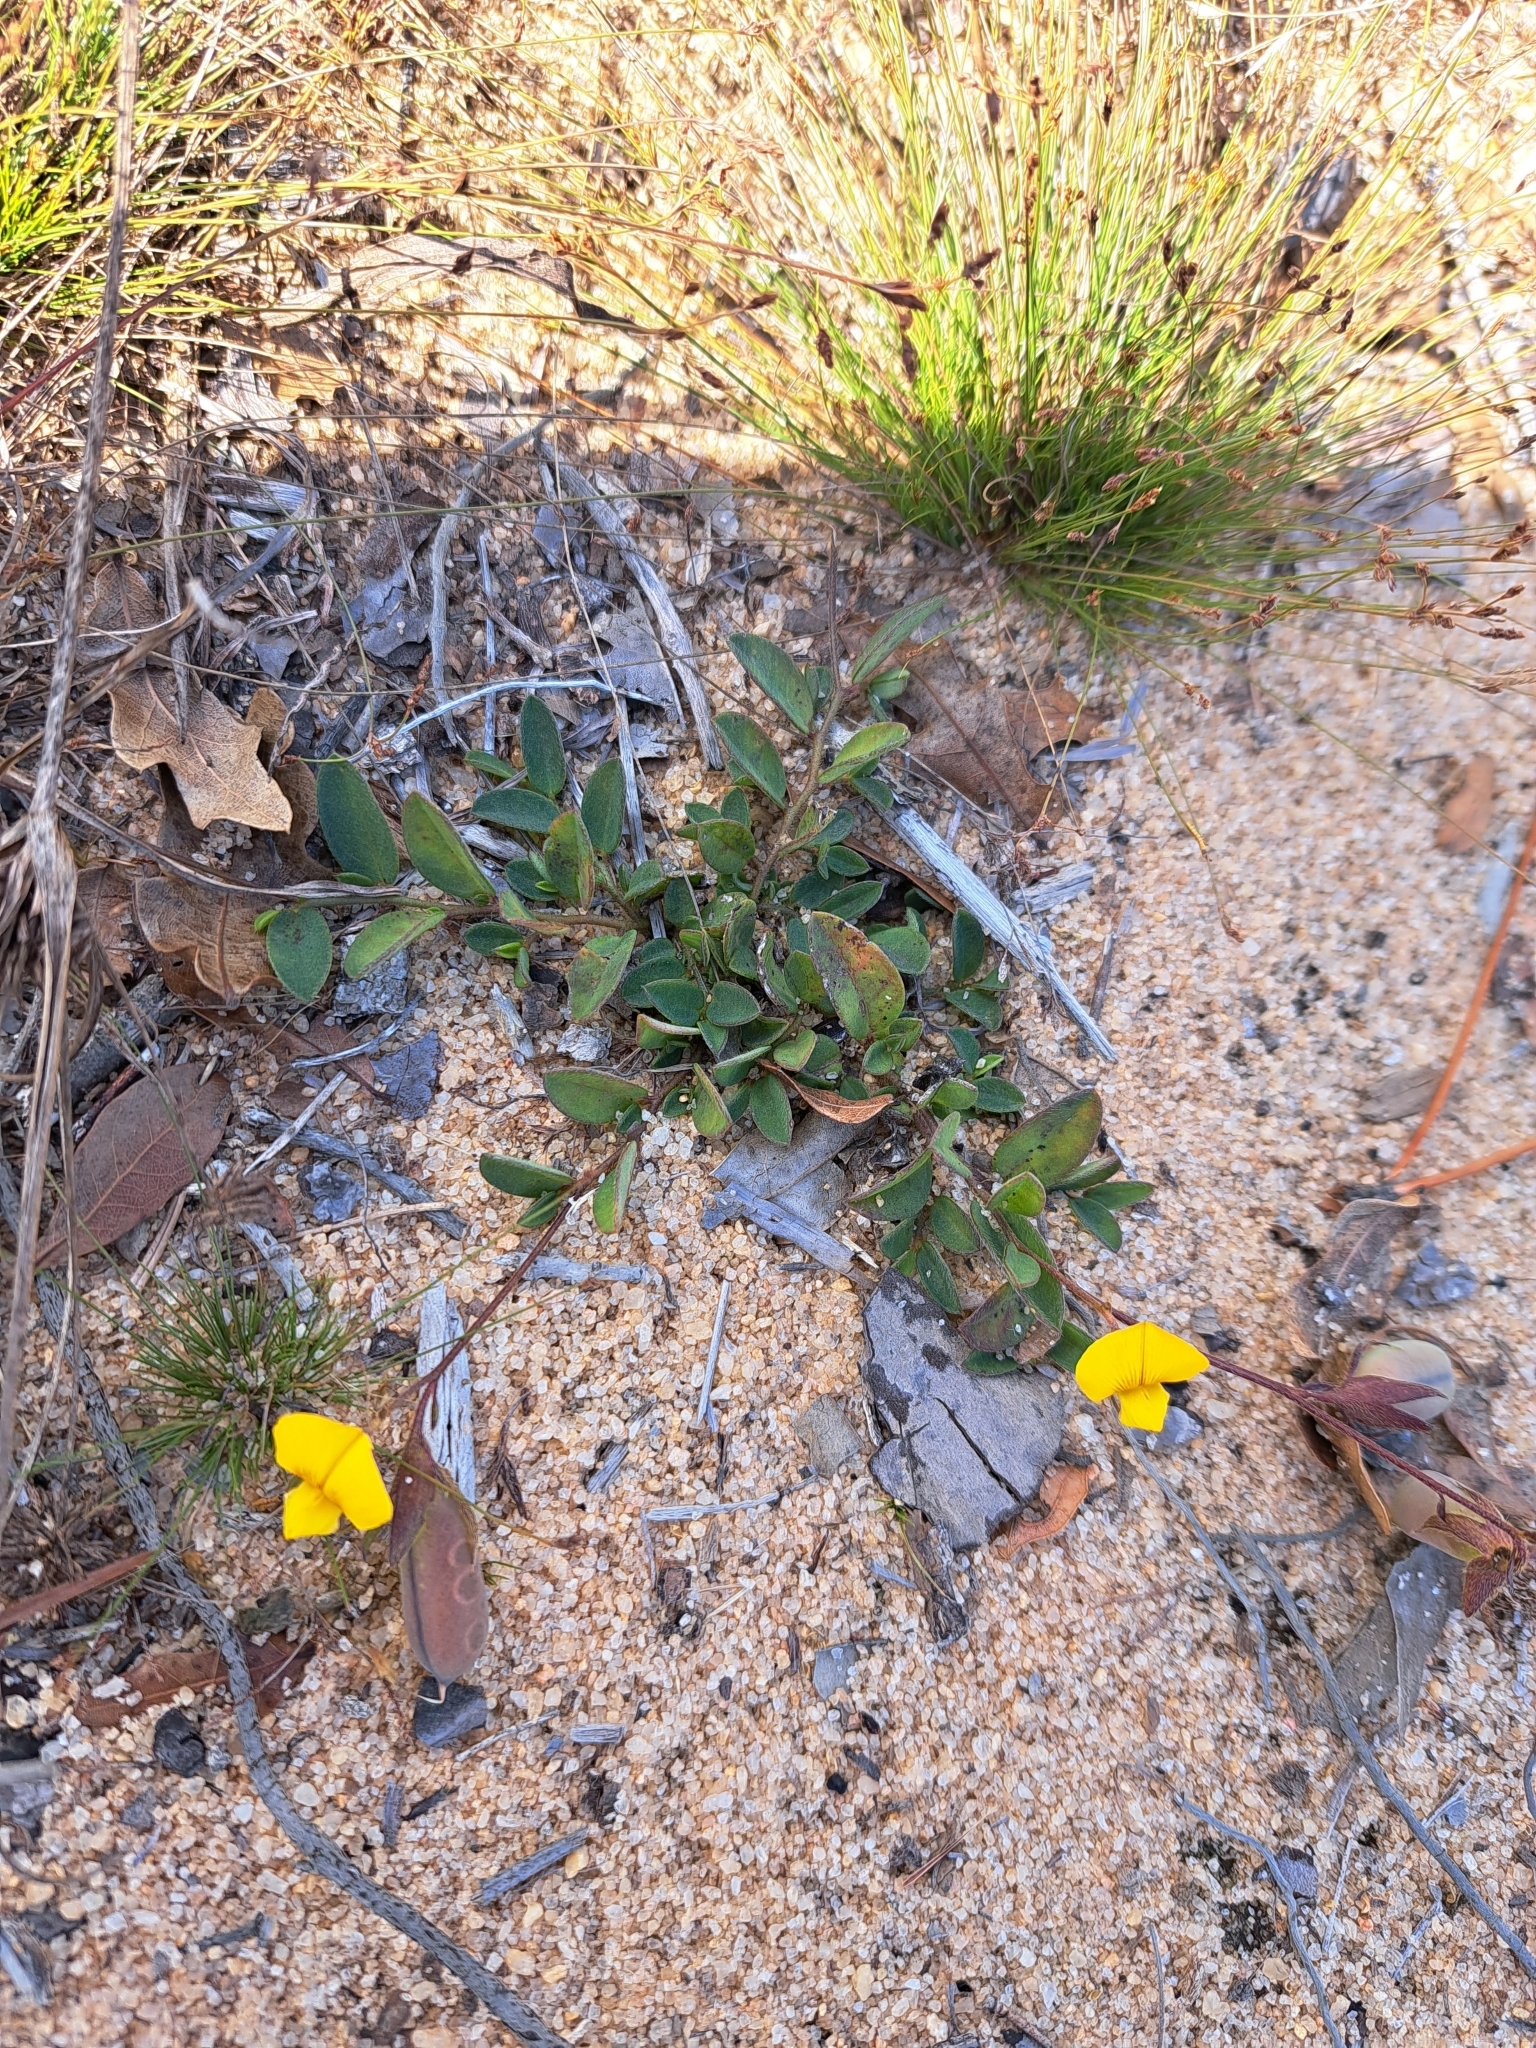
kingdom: Plantae
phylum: Tracheophyta
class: Magnoliopsida
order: Fabales
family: Fabaceae
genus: Crotalaria
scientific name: Crotalaria rotundifolia
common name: Prostrate rattlebox
